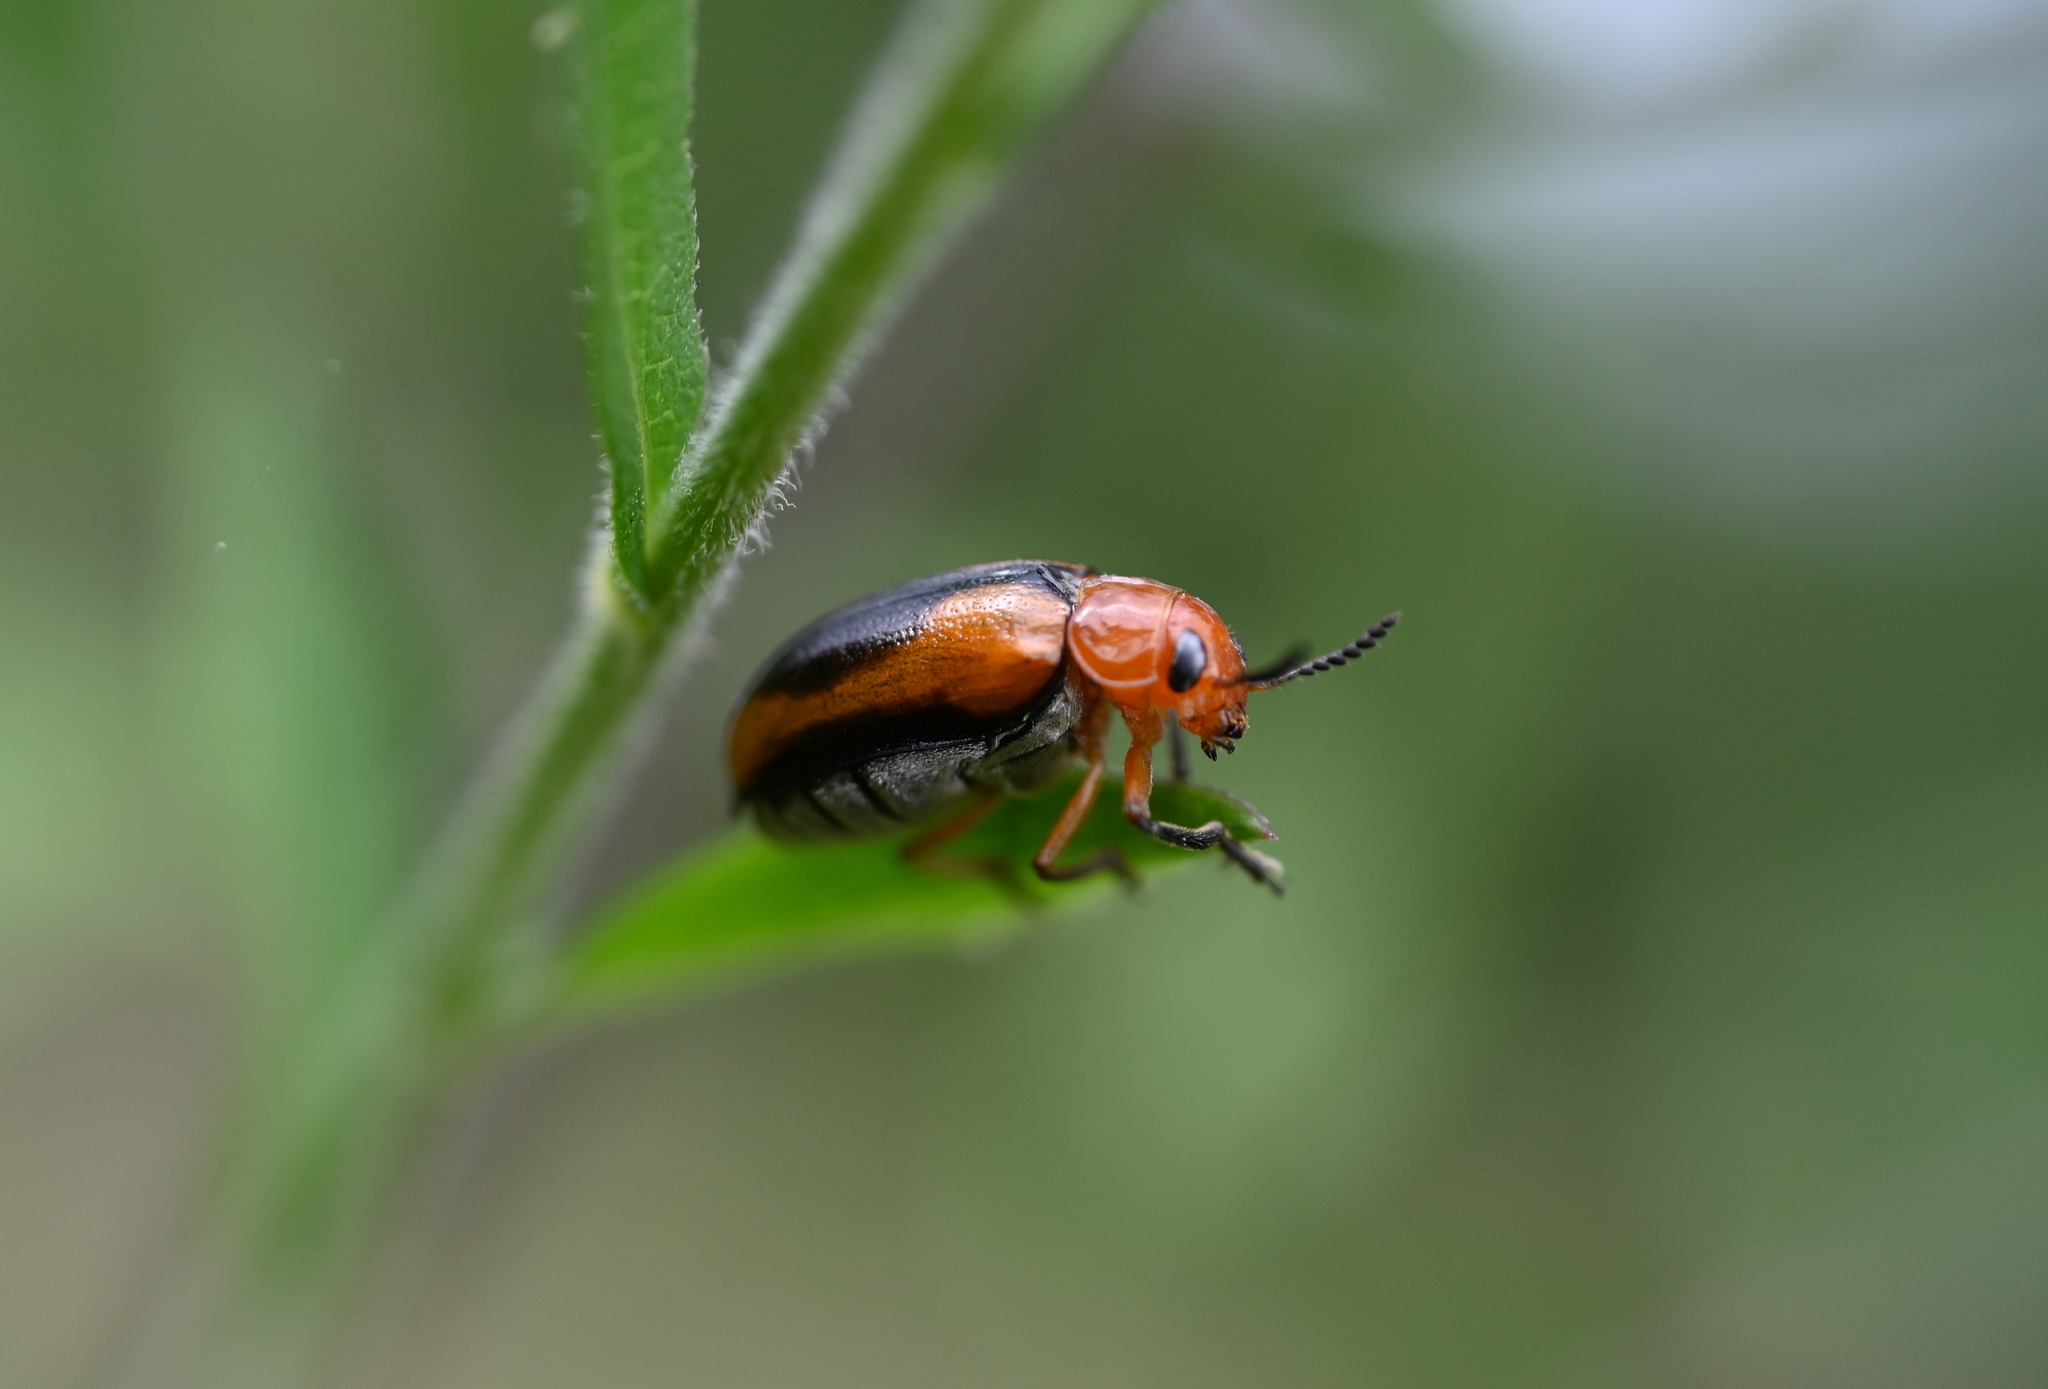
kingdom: Animalia
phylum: Arthropoda
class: Insecta
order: Coleoptera
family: Chrysomelidae
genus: Anomoea
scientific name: Anomoea laticlavia
